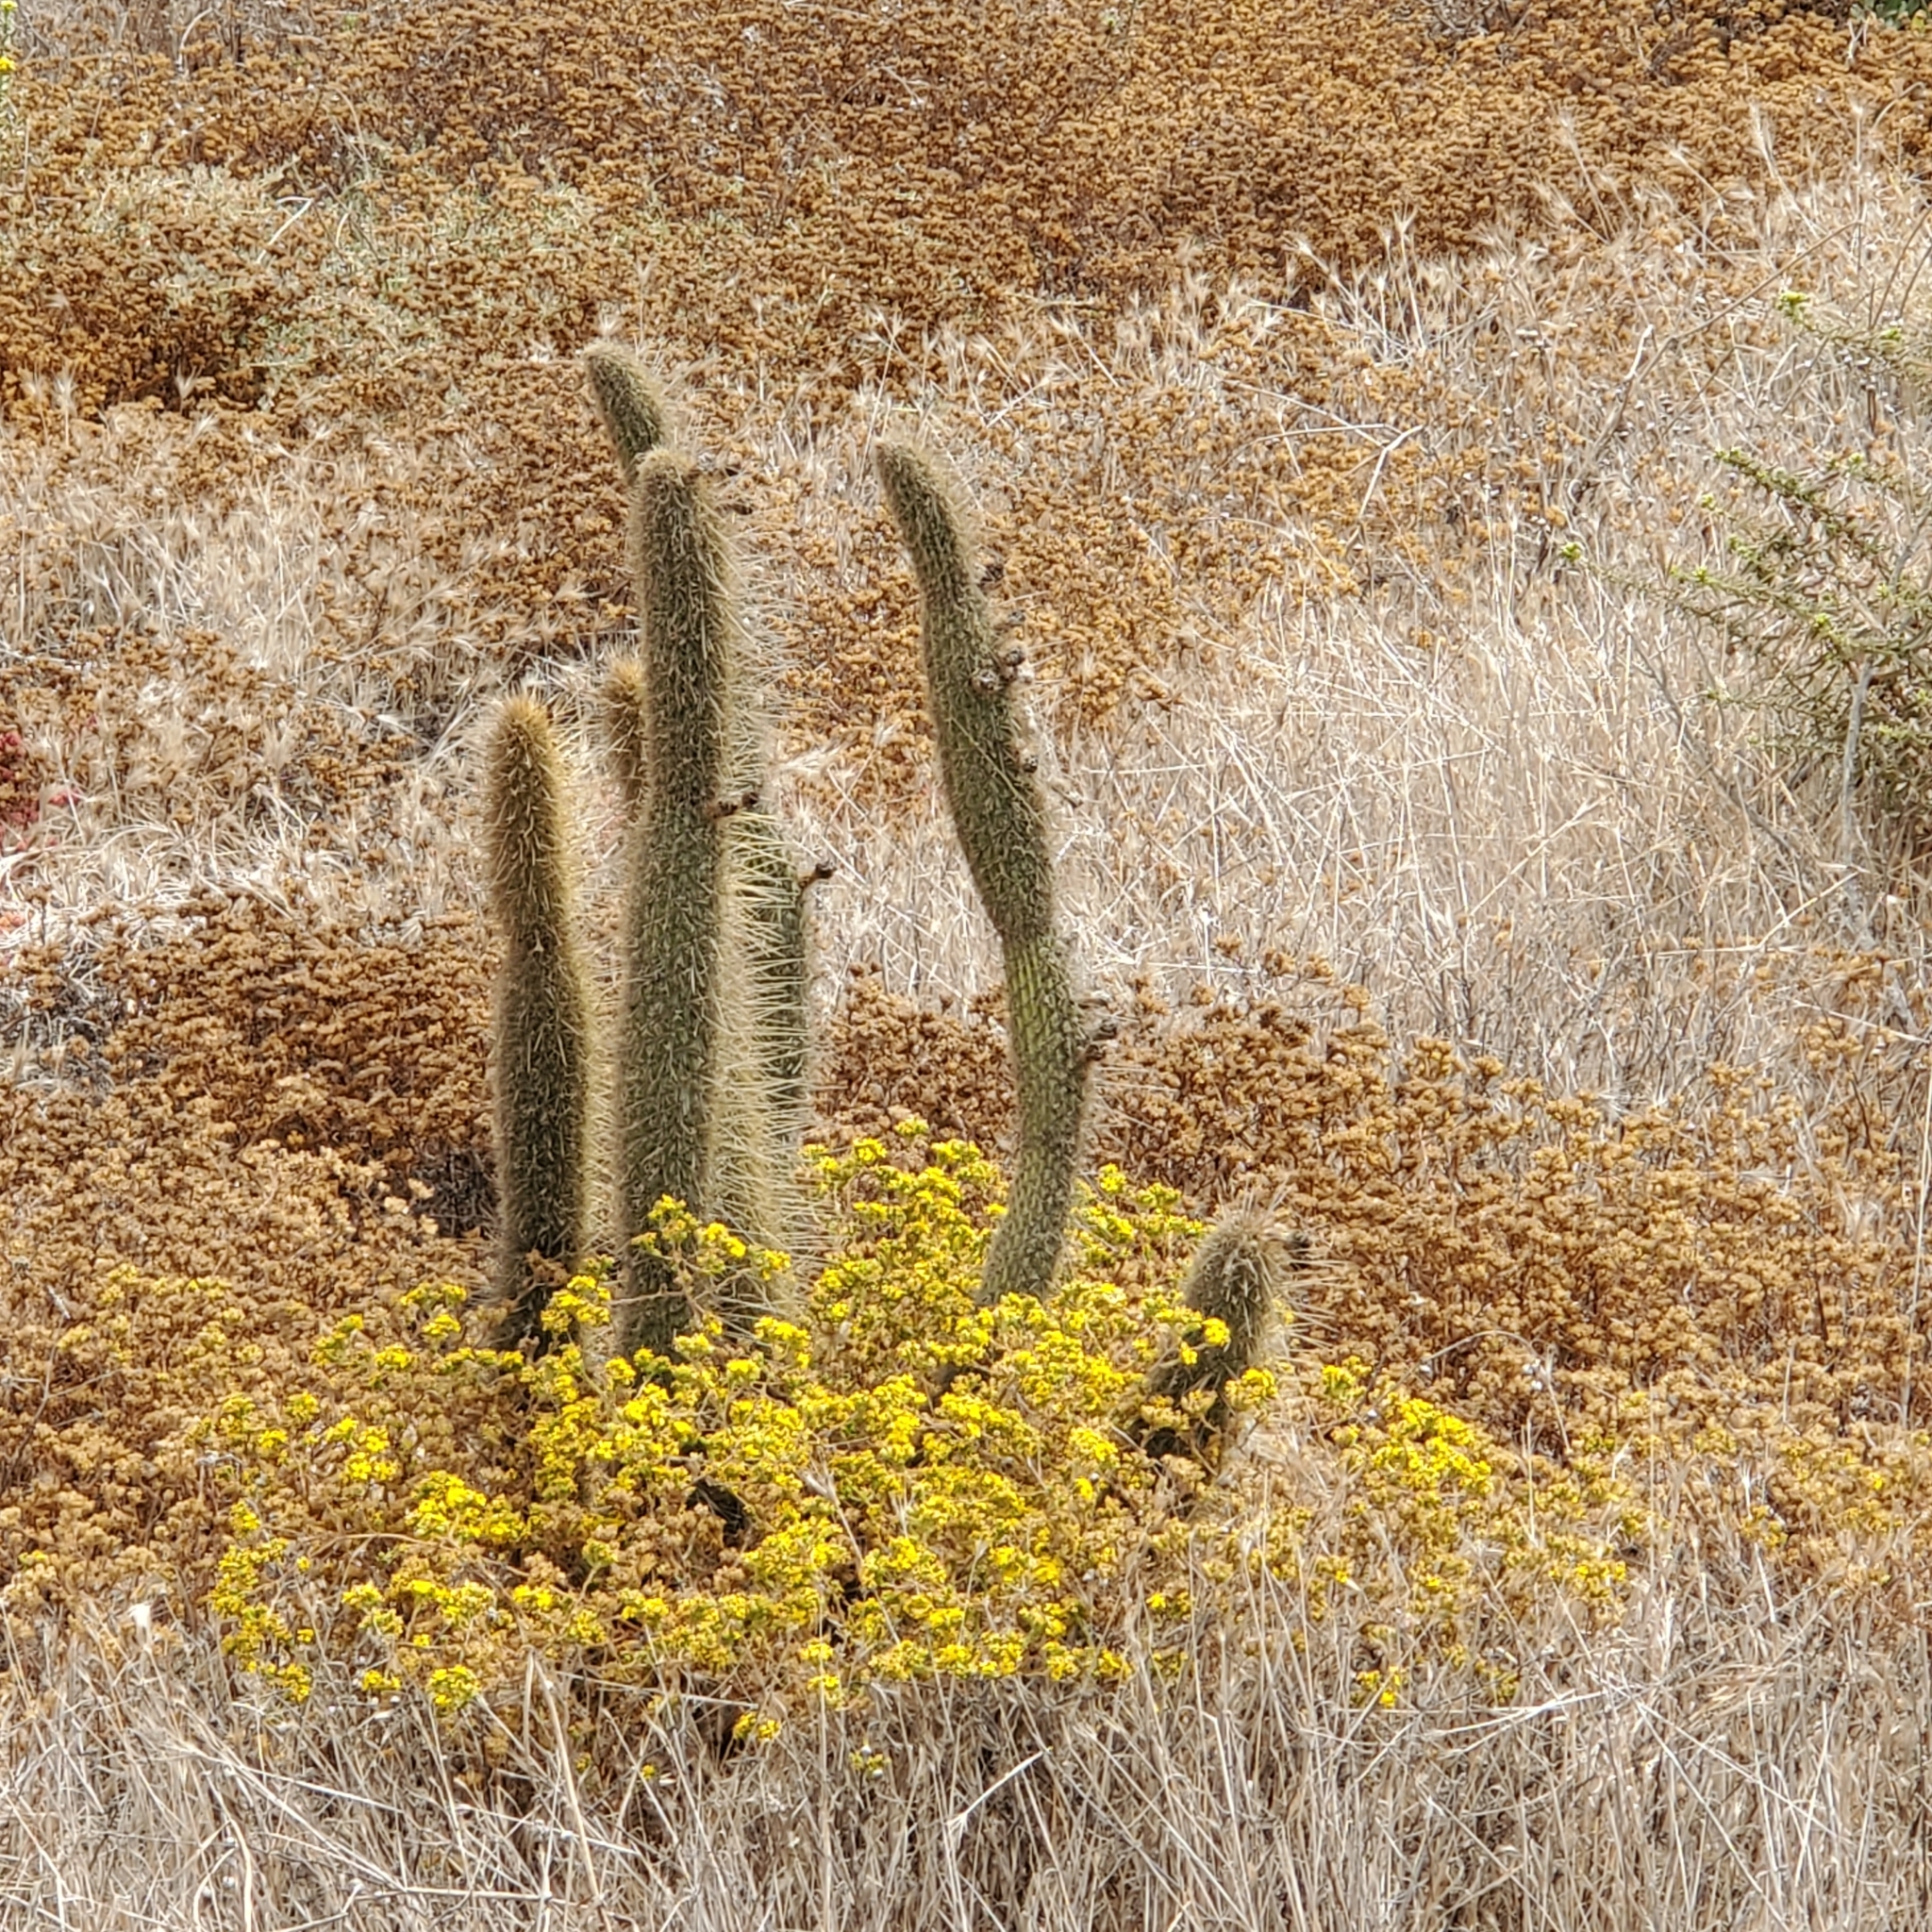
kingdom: Plantae
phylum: Tracheophyta
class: Magnoliopsida
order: Caryophyllales
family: Cactaceae
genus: Bergerocactus
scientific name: Bergerocactus emoryi
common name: Golden snakecactus
